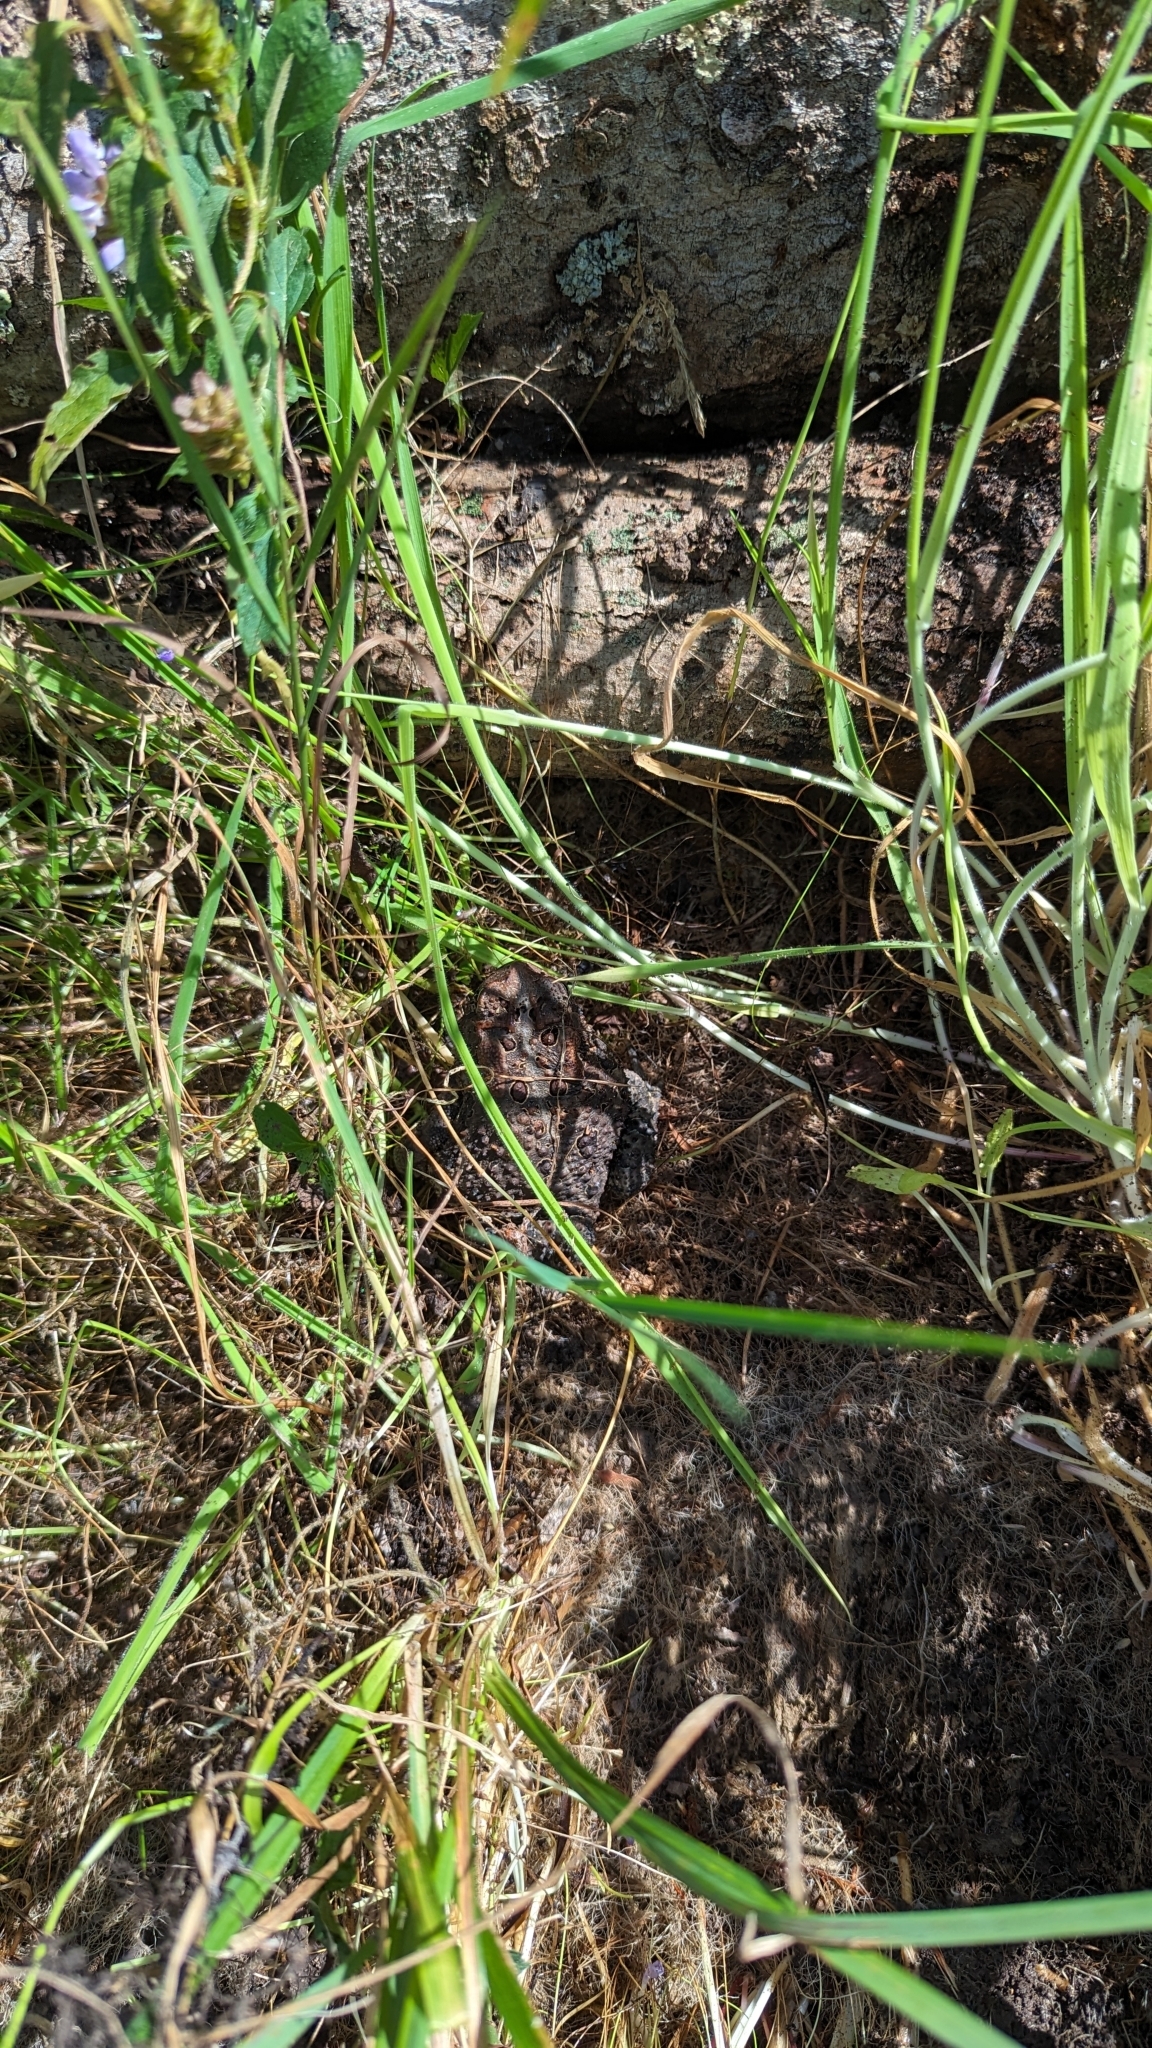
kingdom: Animalia
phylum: Chordata
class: Amphibia
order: Anura
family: Bufonidae
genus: Anaxyrus
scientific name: Anaxyrus americanus
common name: American toad
